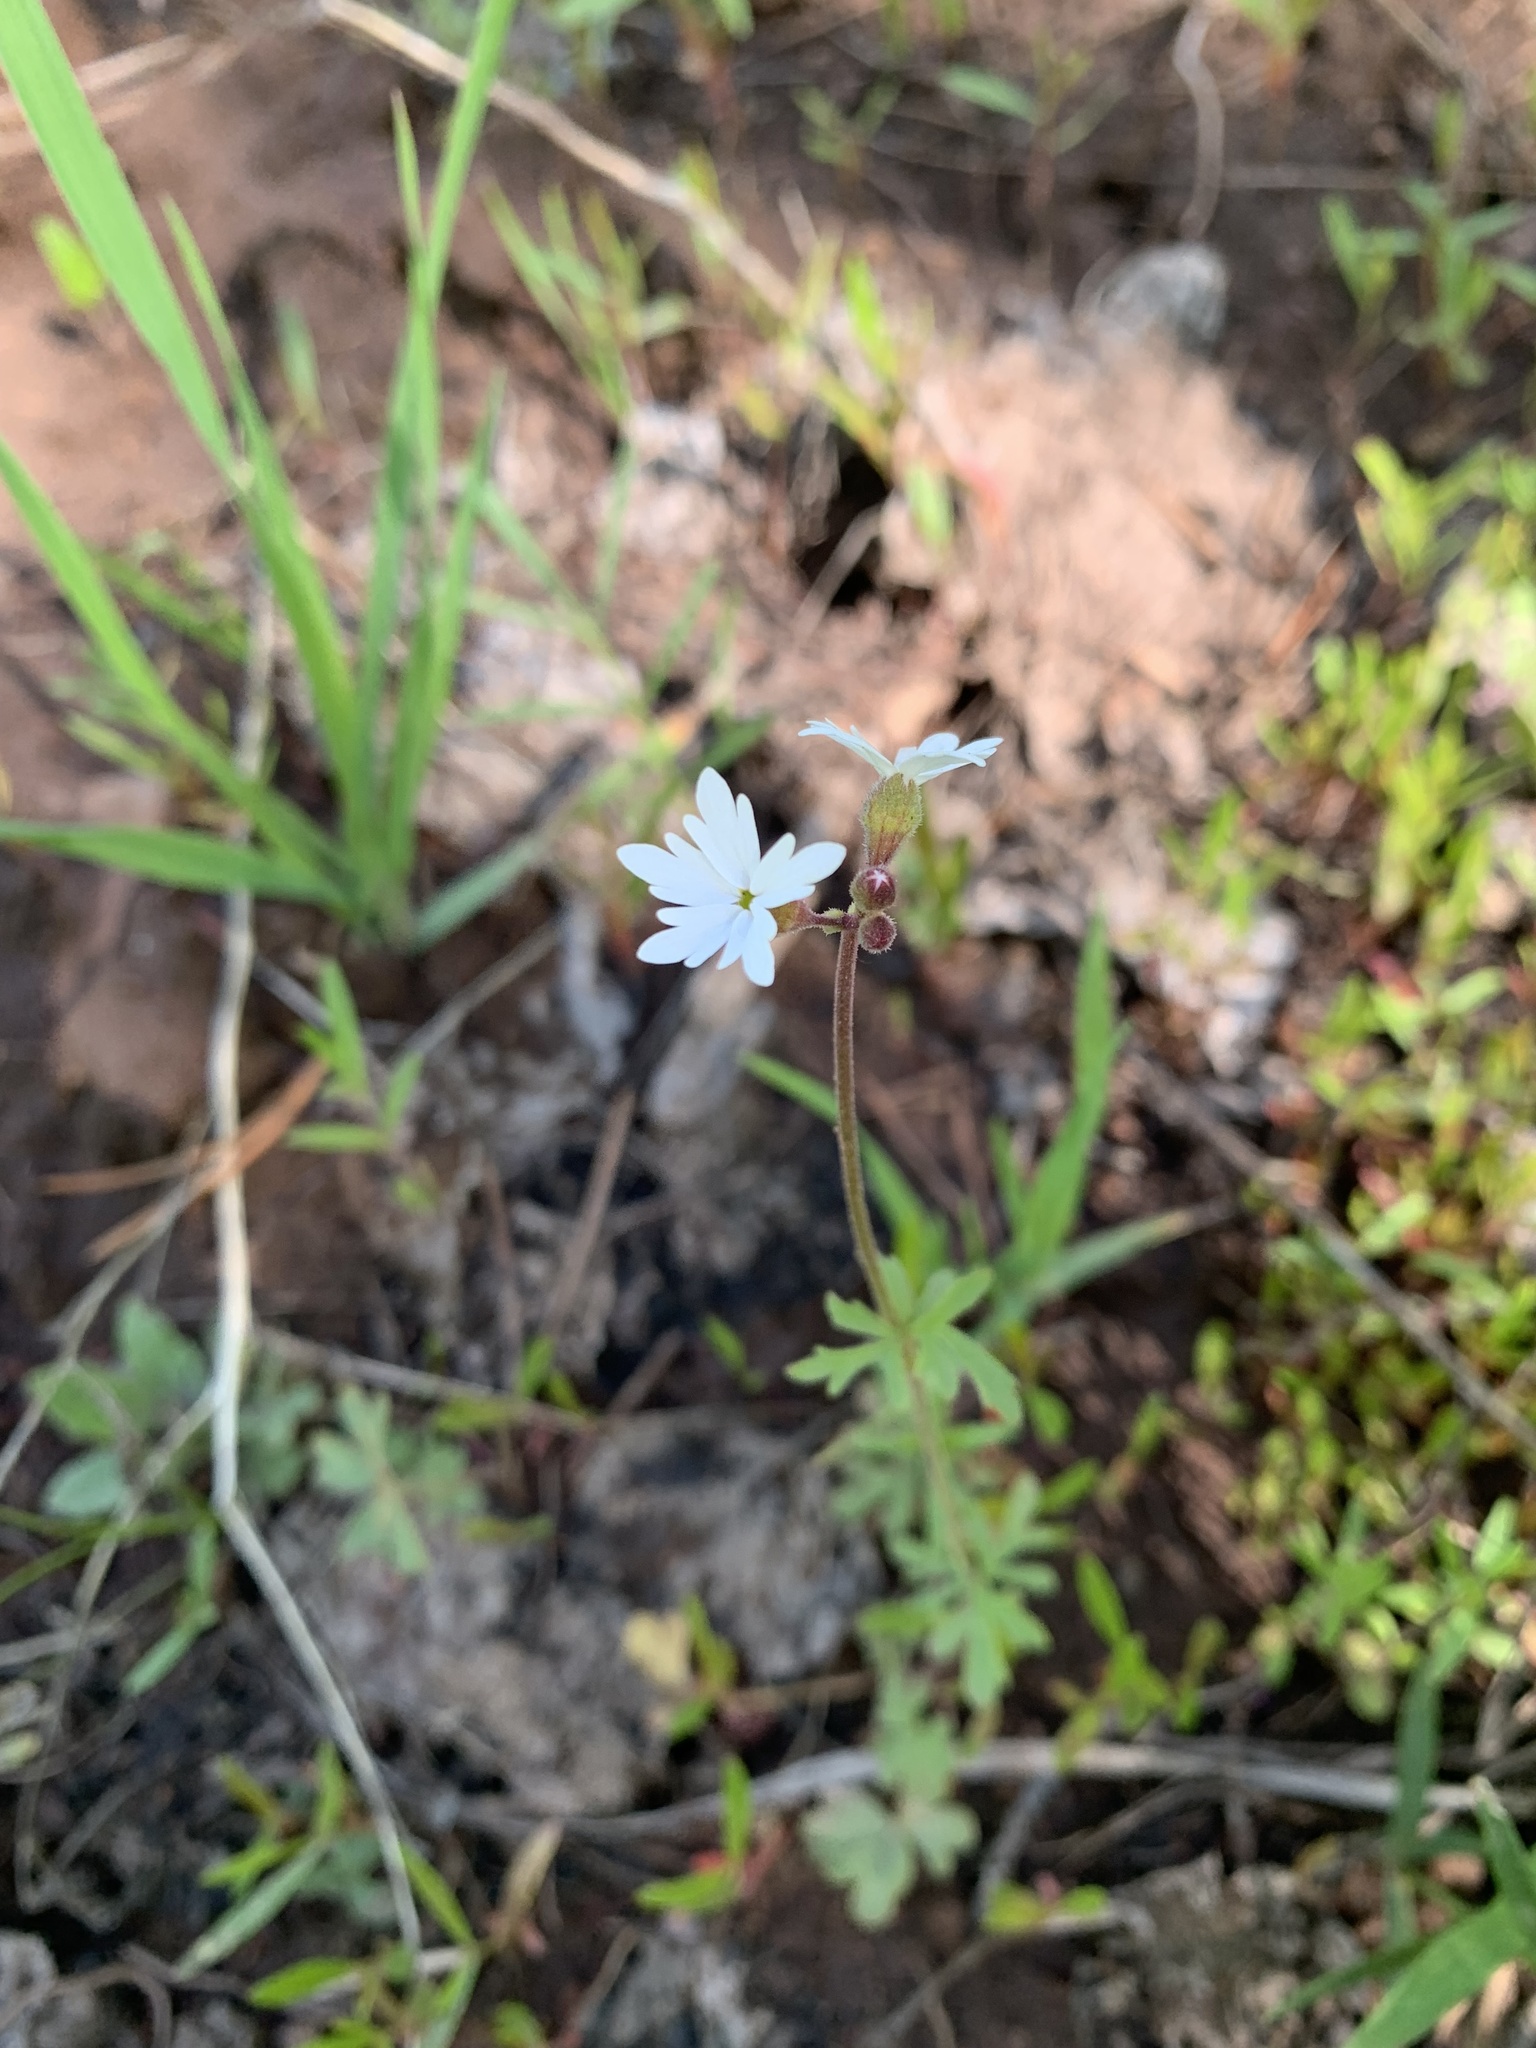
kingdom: Plantae
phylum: Tracheophyta
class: Magnoliopsida
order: Saxifragales
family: Saxifragaceae
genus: Lithophragma
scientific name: Lithophragma parviflorum
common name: Small-flowered fringe-cup
